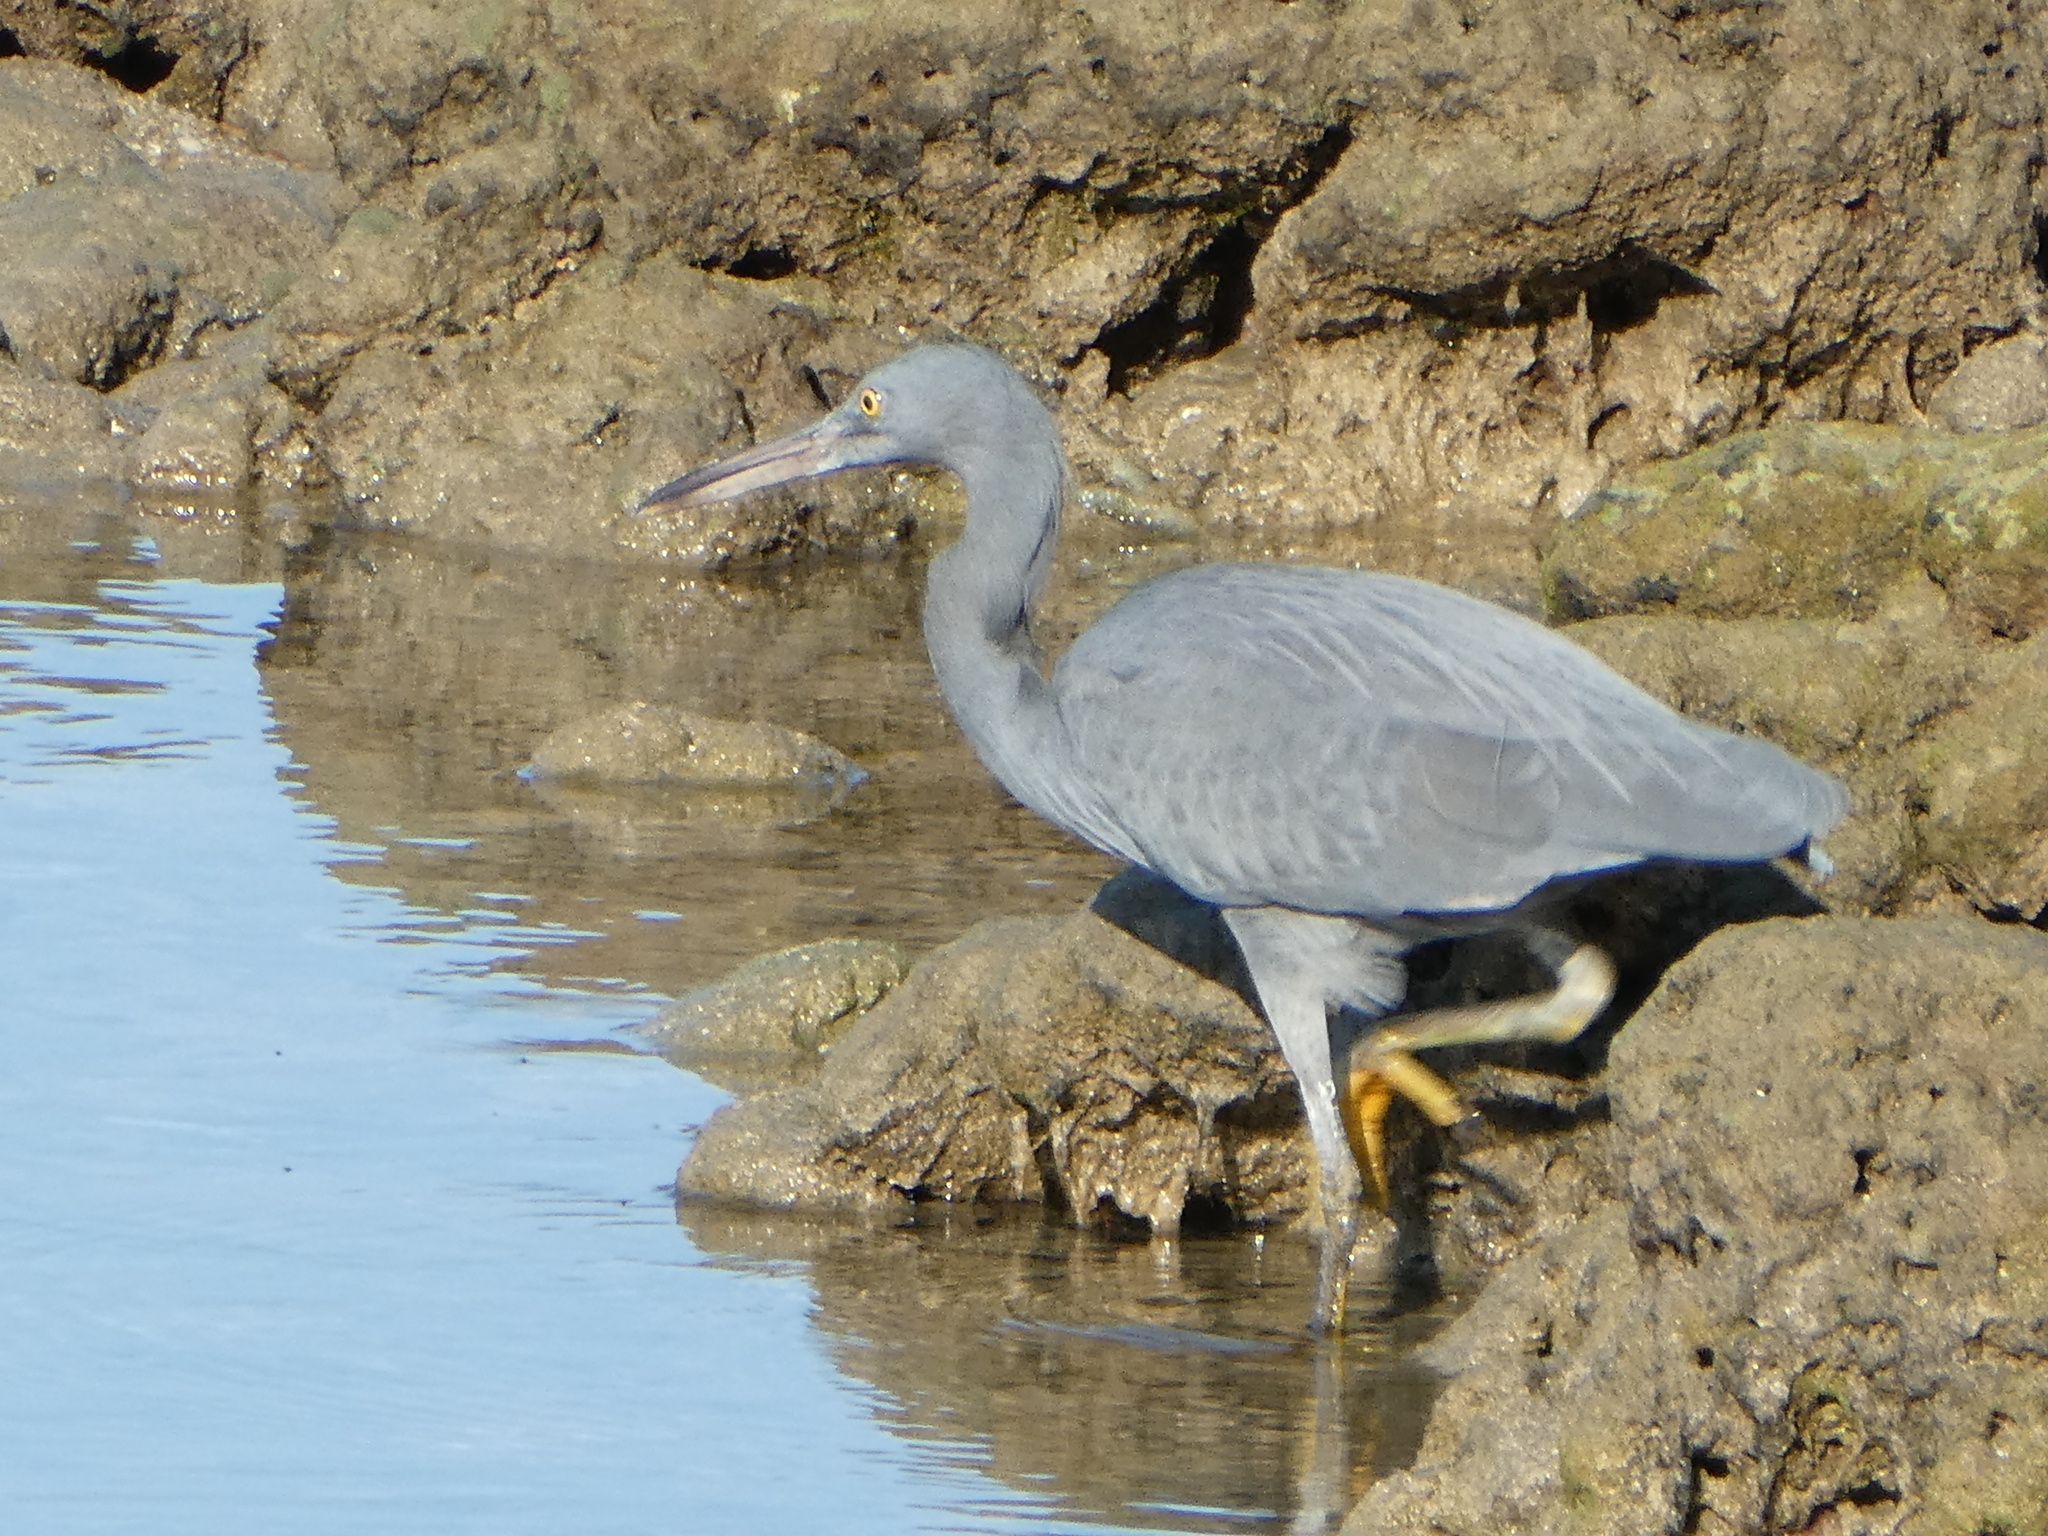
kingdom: Animalia
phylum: Chordata
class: Aves
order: Pelecaniformes
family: Ardeidae
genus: Egretta
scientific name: Egretta sacra
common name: Pacific reef heron
